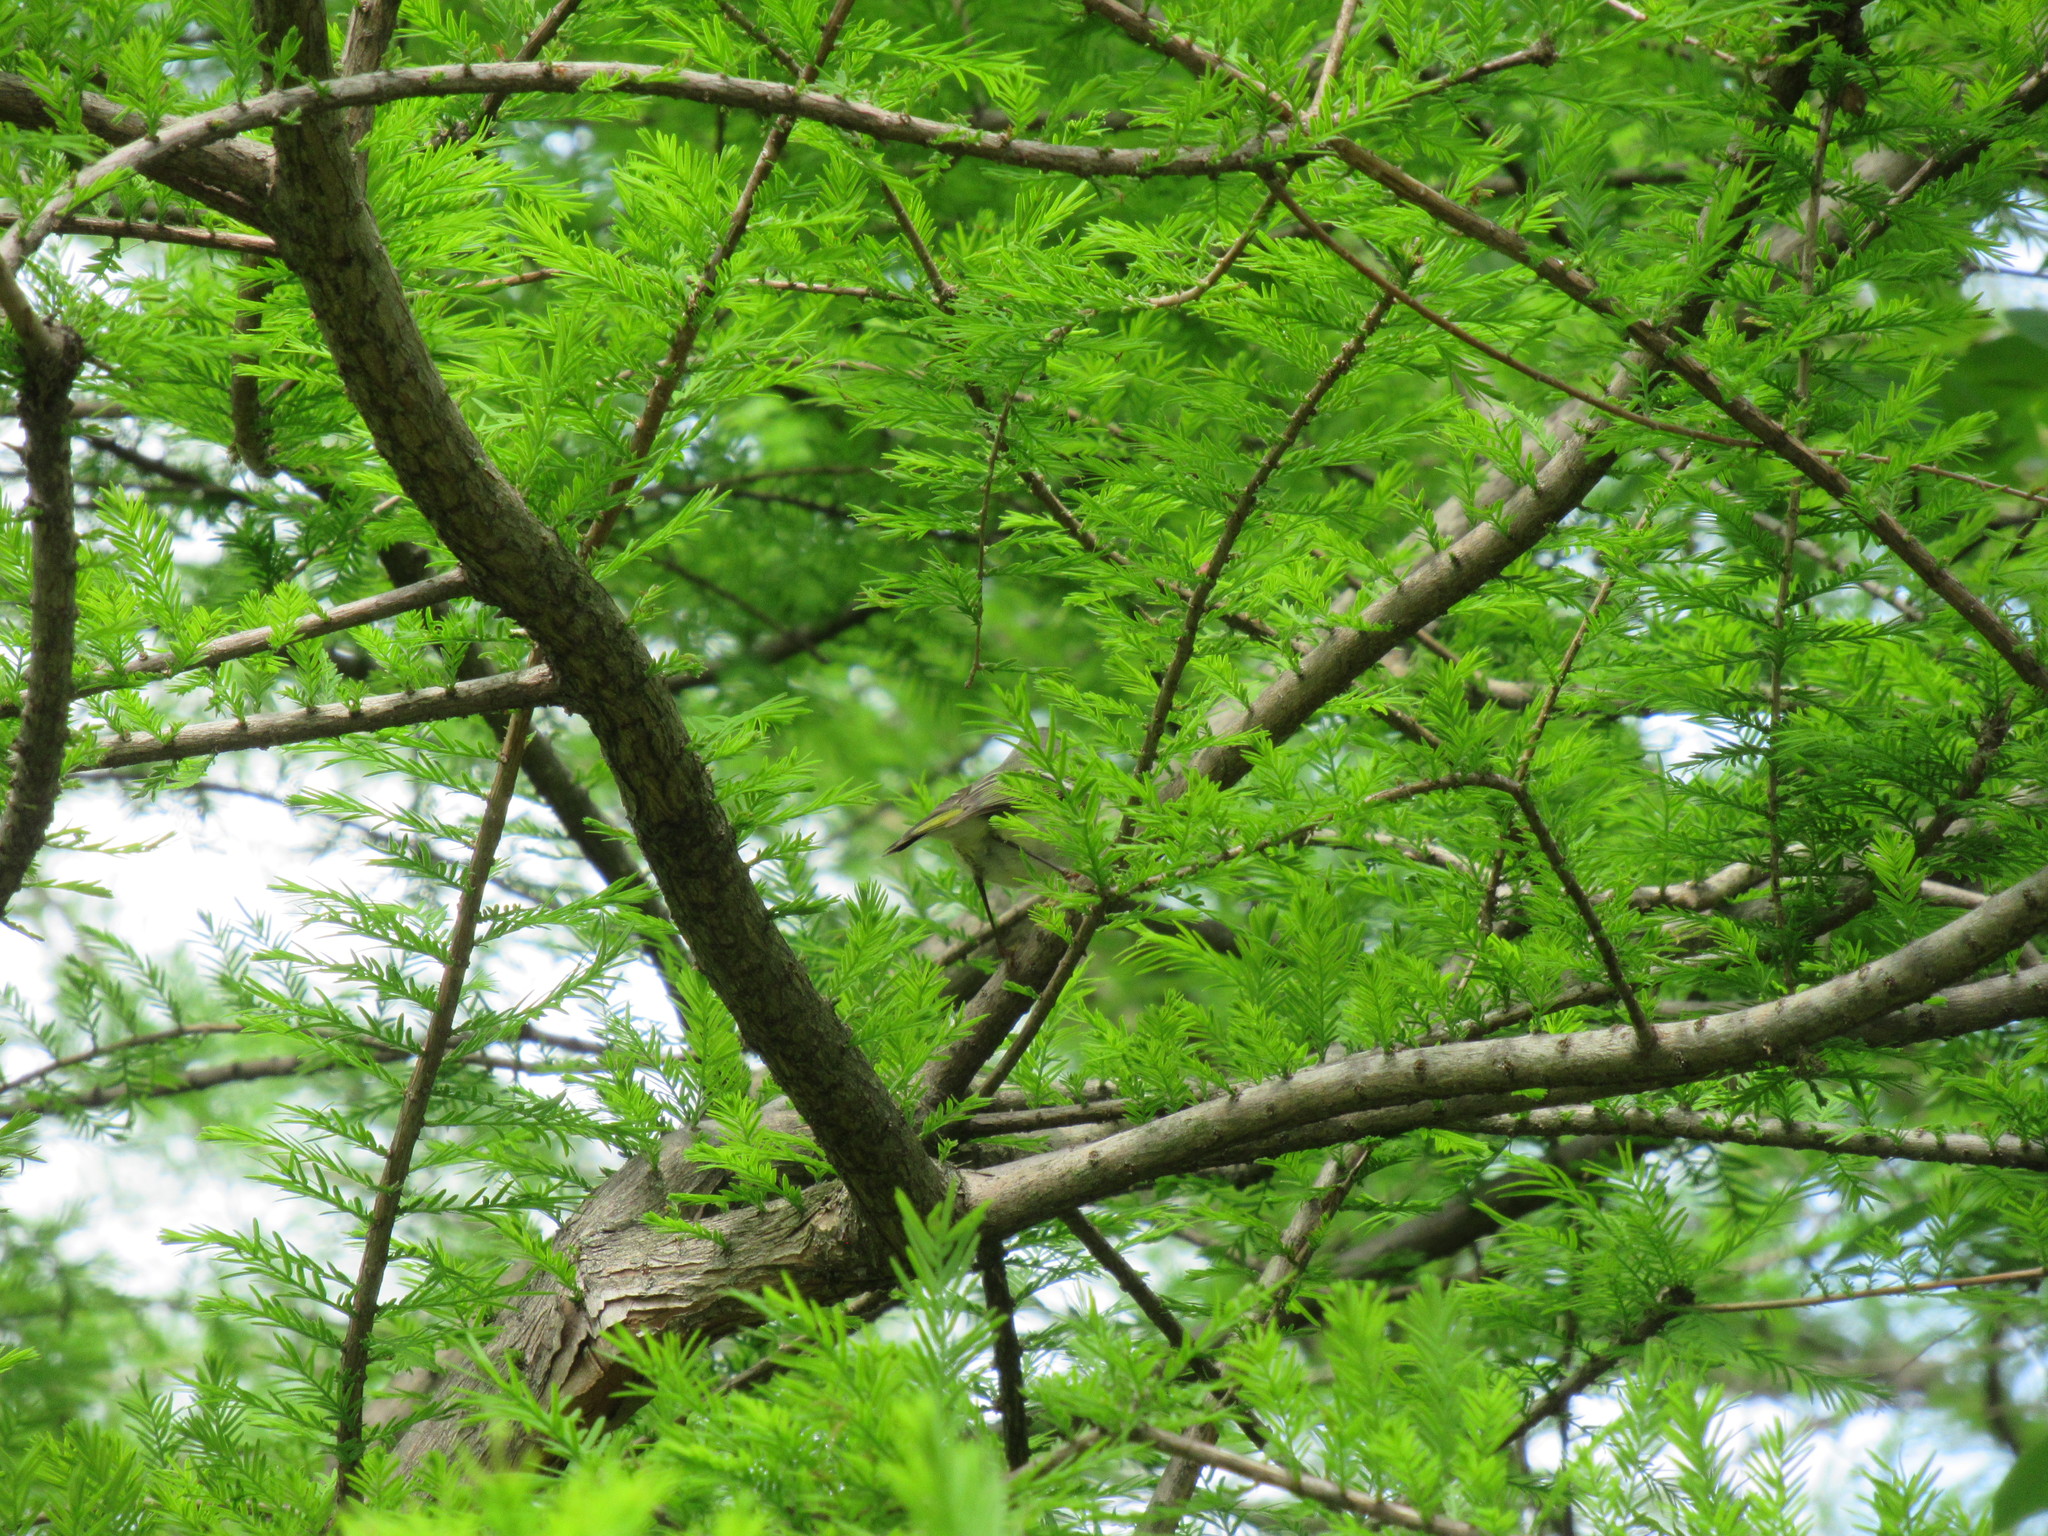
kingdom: Animalia
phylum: Chordata
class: Aves
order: Passeriformes
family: Vireonidae
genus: Vireo
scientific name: Vireo solitarius
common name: Blue-headed vireo
